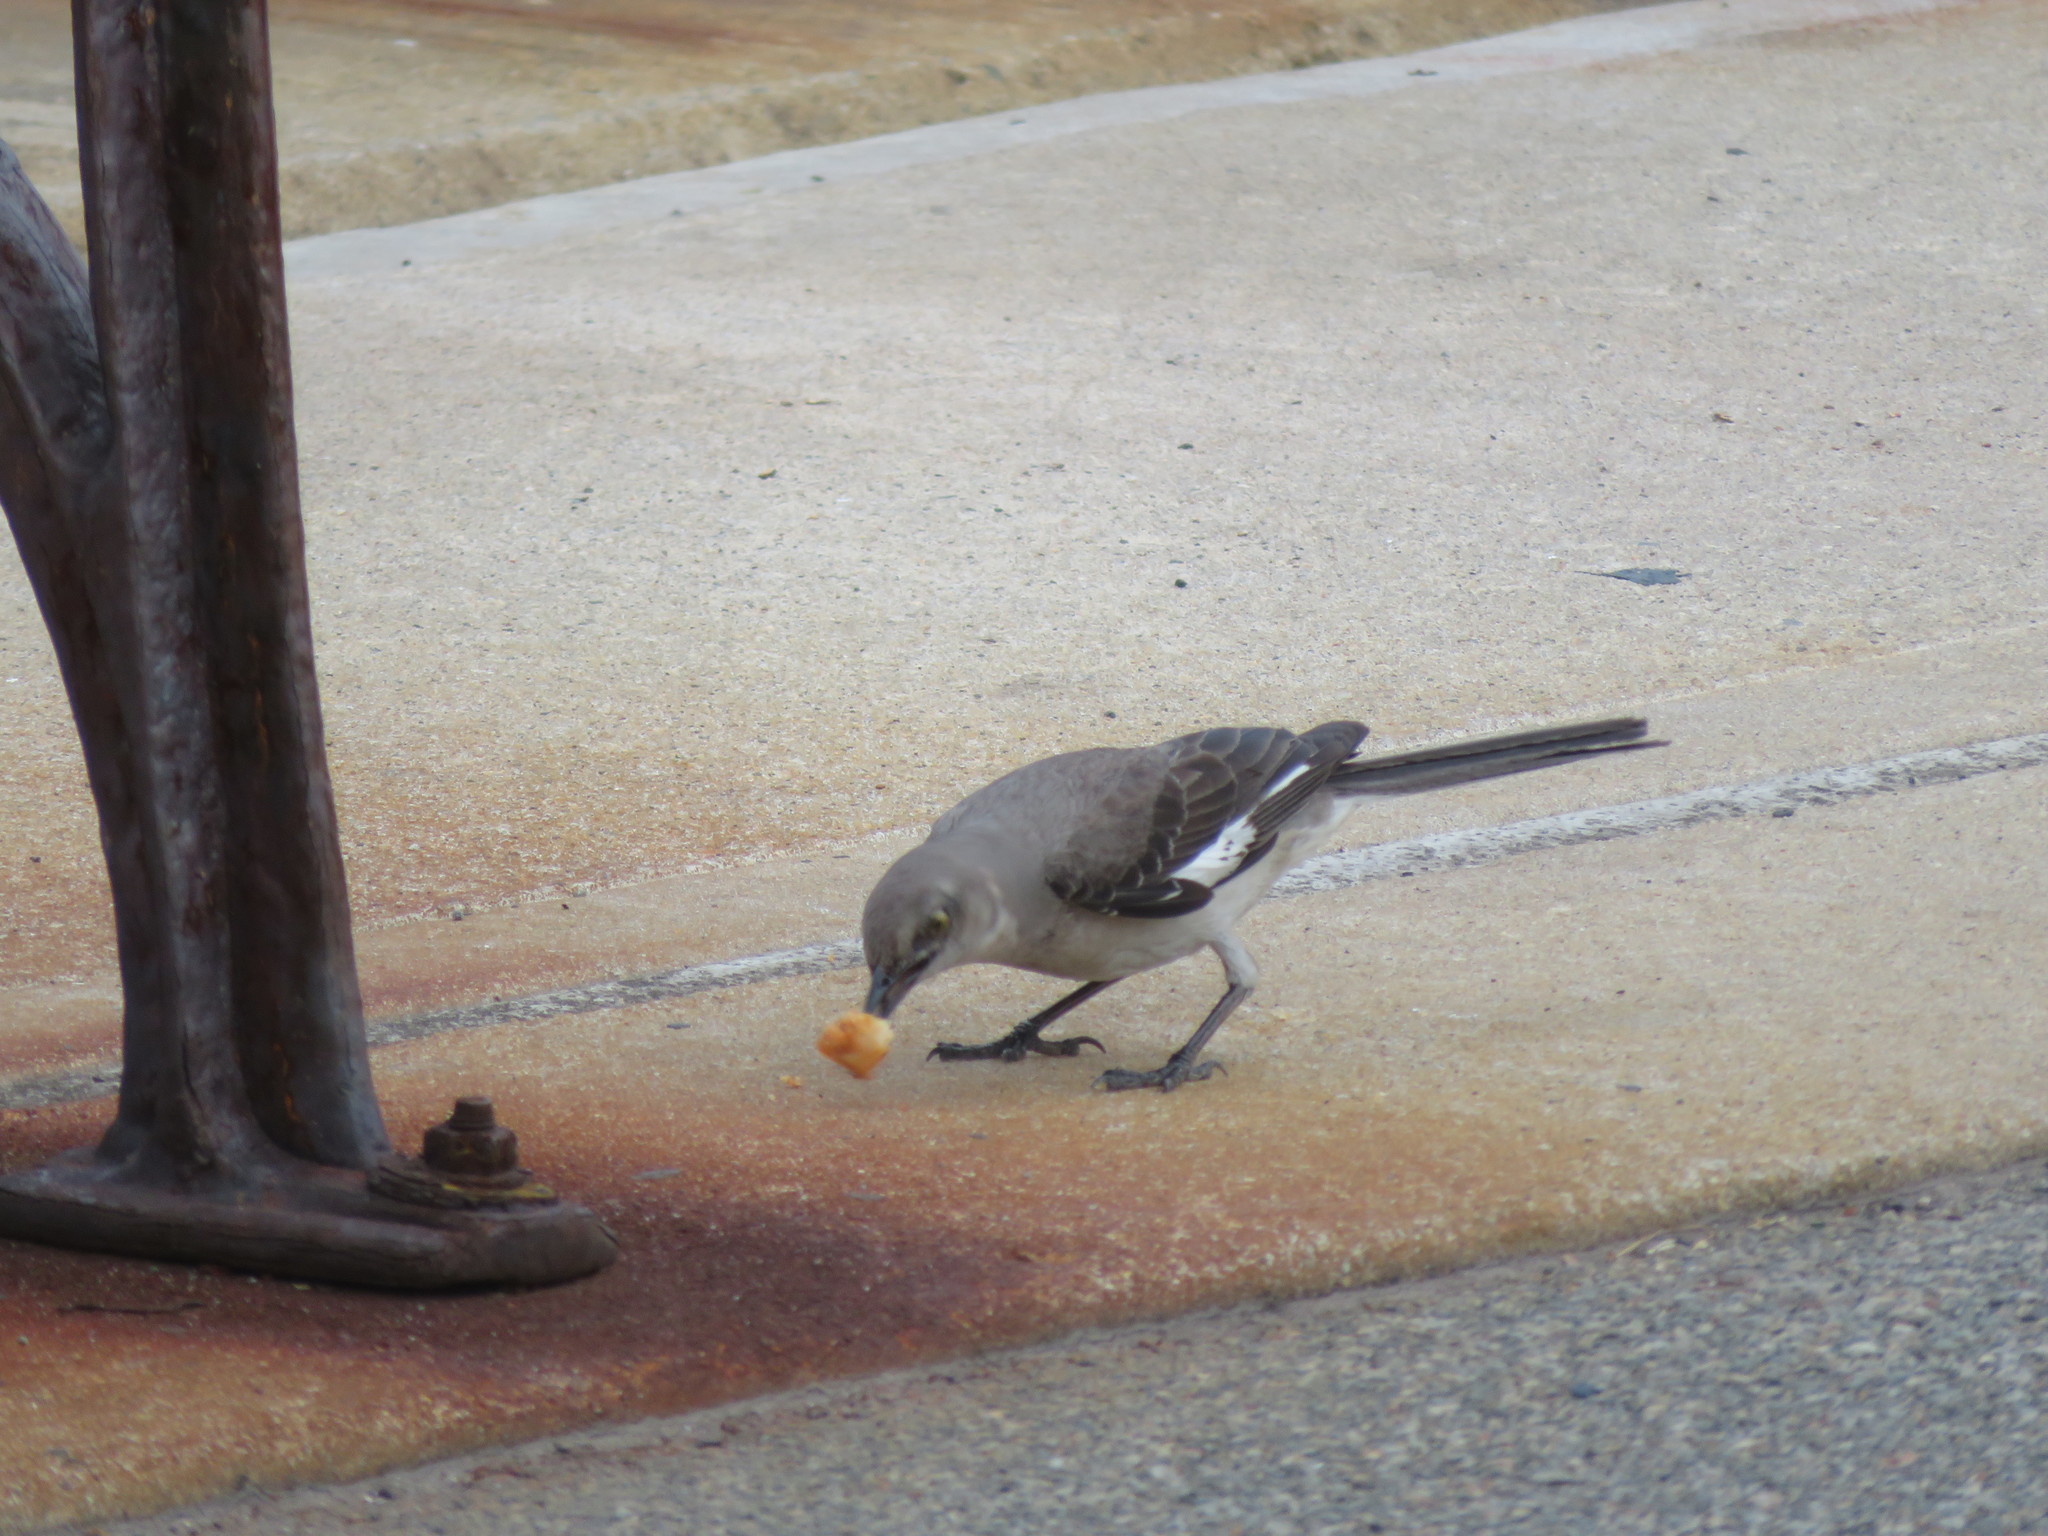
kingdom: Animalia
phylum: Chordata
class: Aves
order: Passeriformes
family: Mimidae
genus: Mimus
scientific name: Mimus polyglottos
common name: Northern mockingbird
